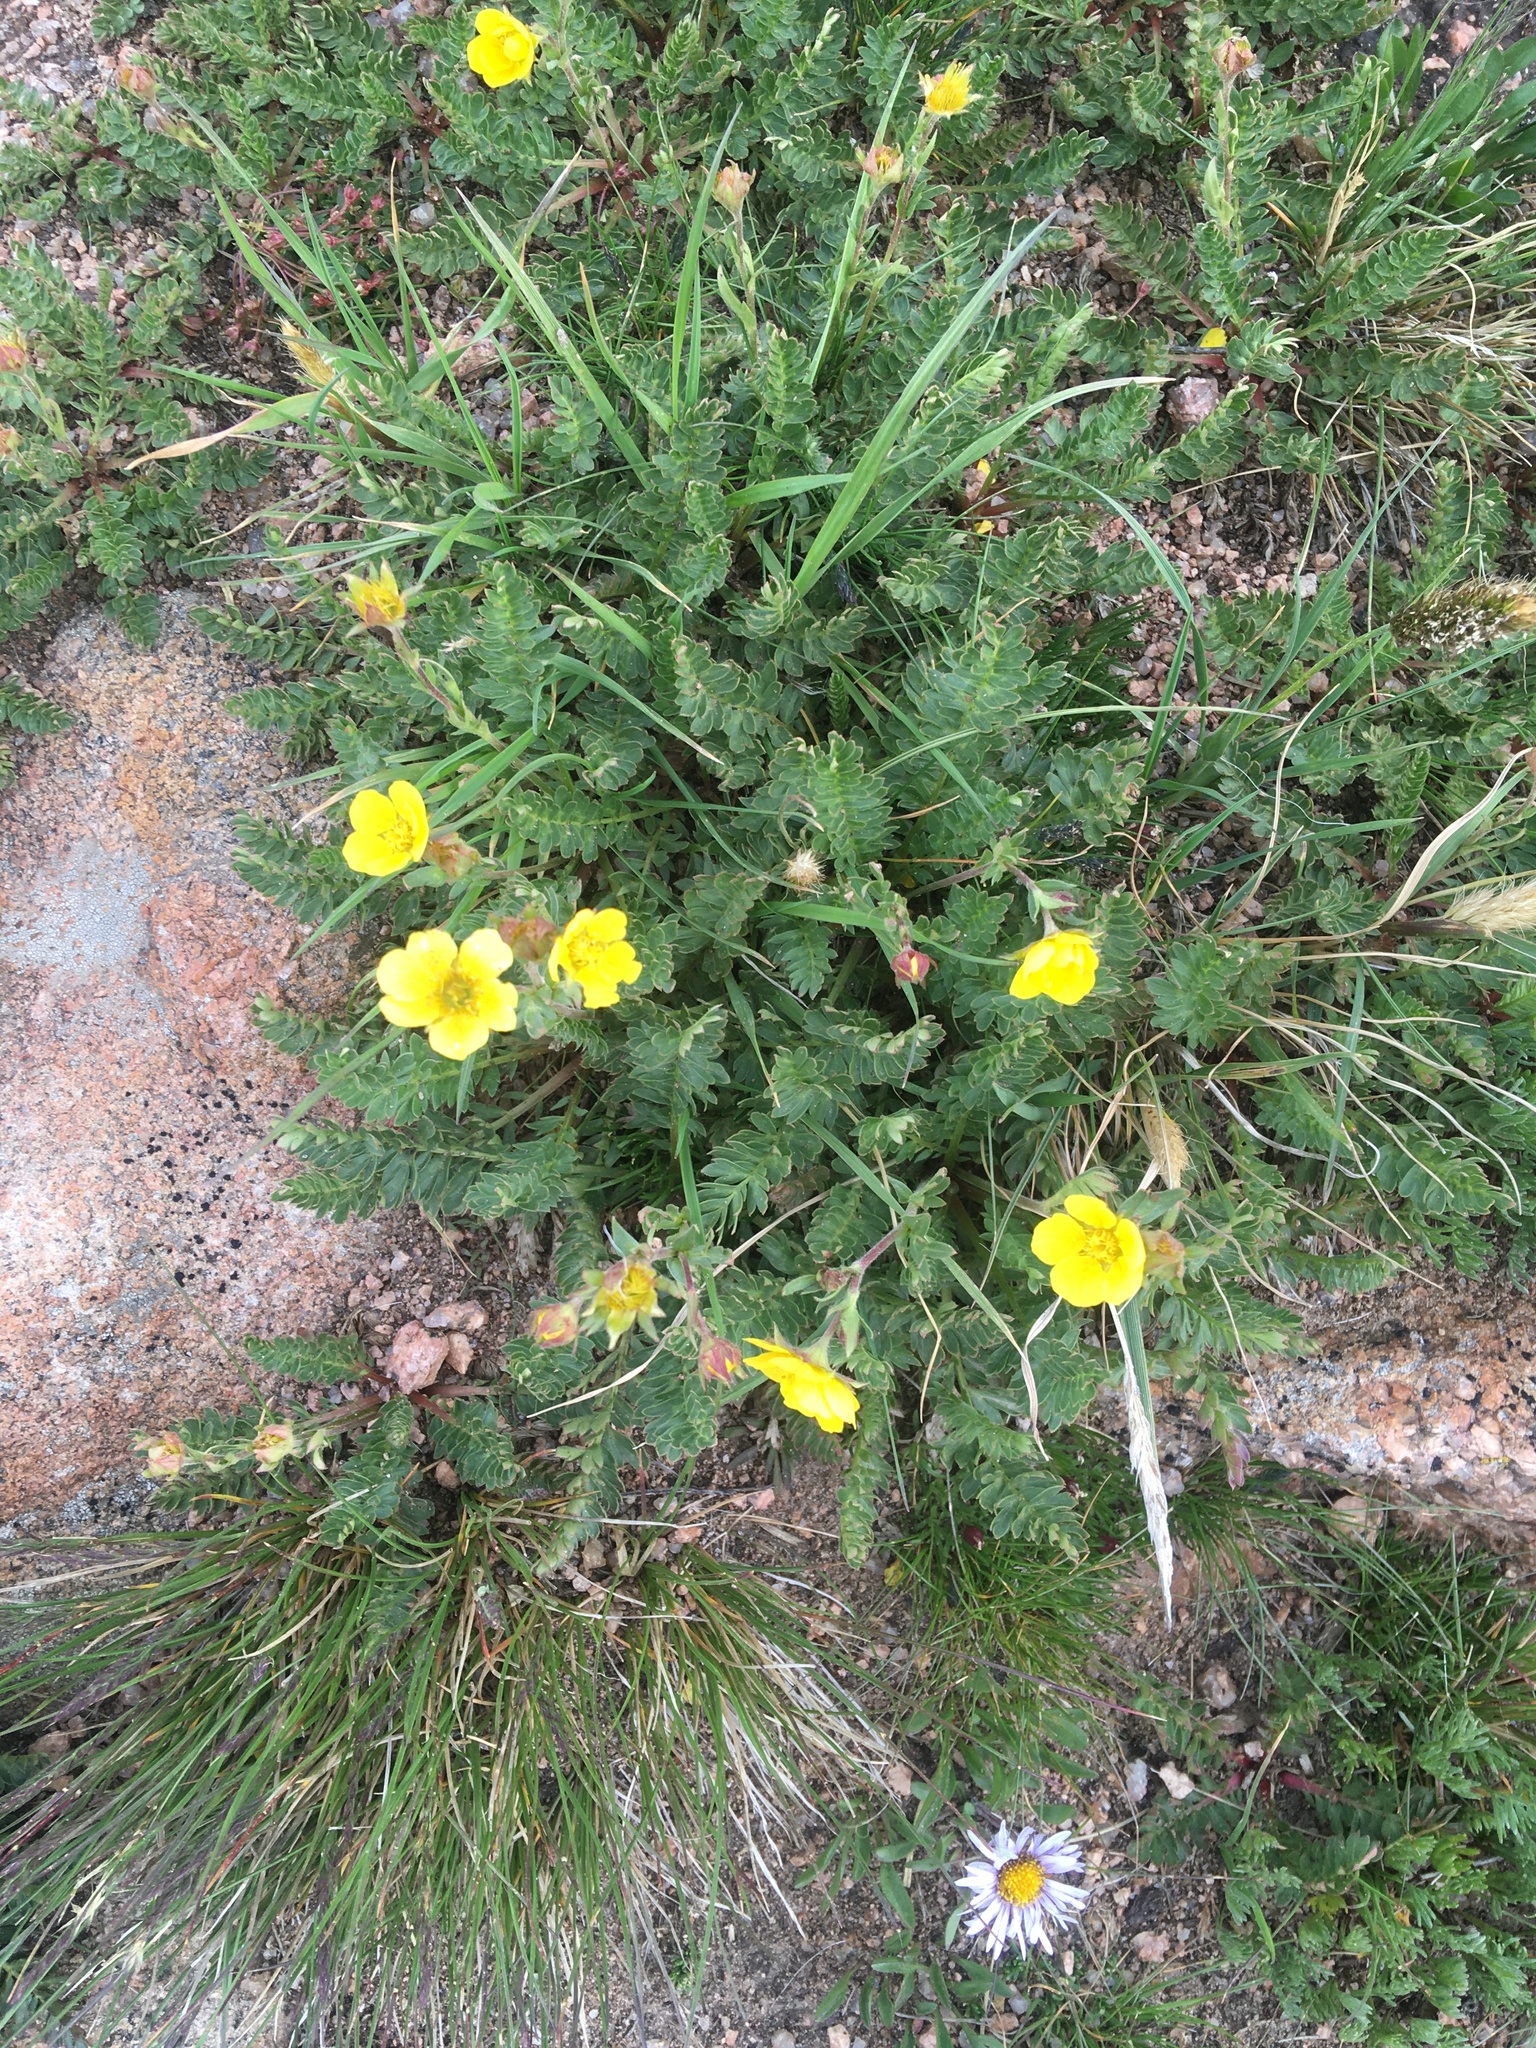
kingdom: Plantae
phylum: Tracheophyta
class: Magnoliopsida
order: Rosales
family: Rosaceae
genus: Geum
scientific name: Geum rossii
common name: Alpine avens
